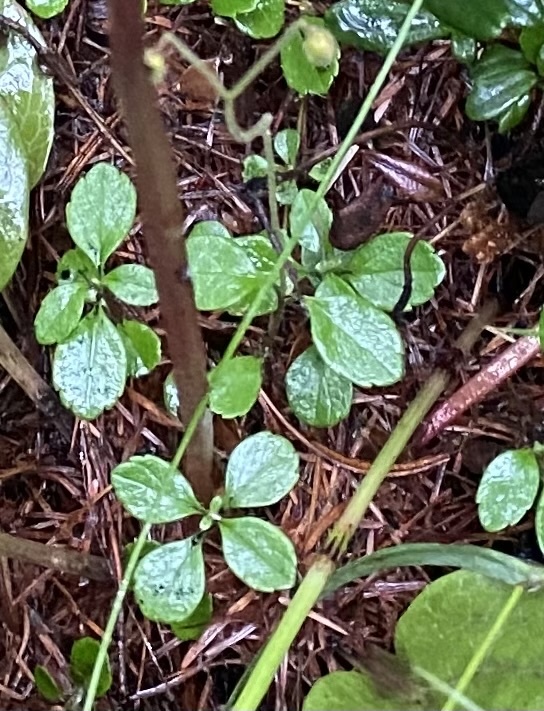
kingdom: Plantae
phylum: Tracheophyta
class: Magnoliopsida
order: Dipsacales
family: Caprifoliaceae
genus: Linnaea
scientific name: Linnaea borealis
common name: Twinflower
